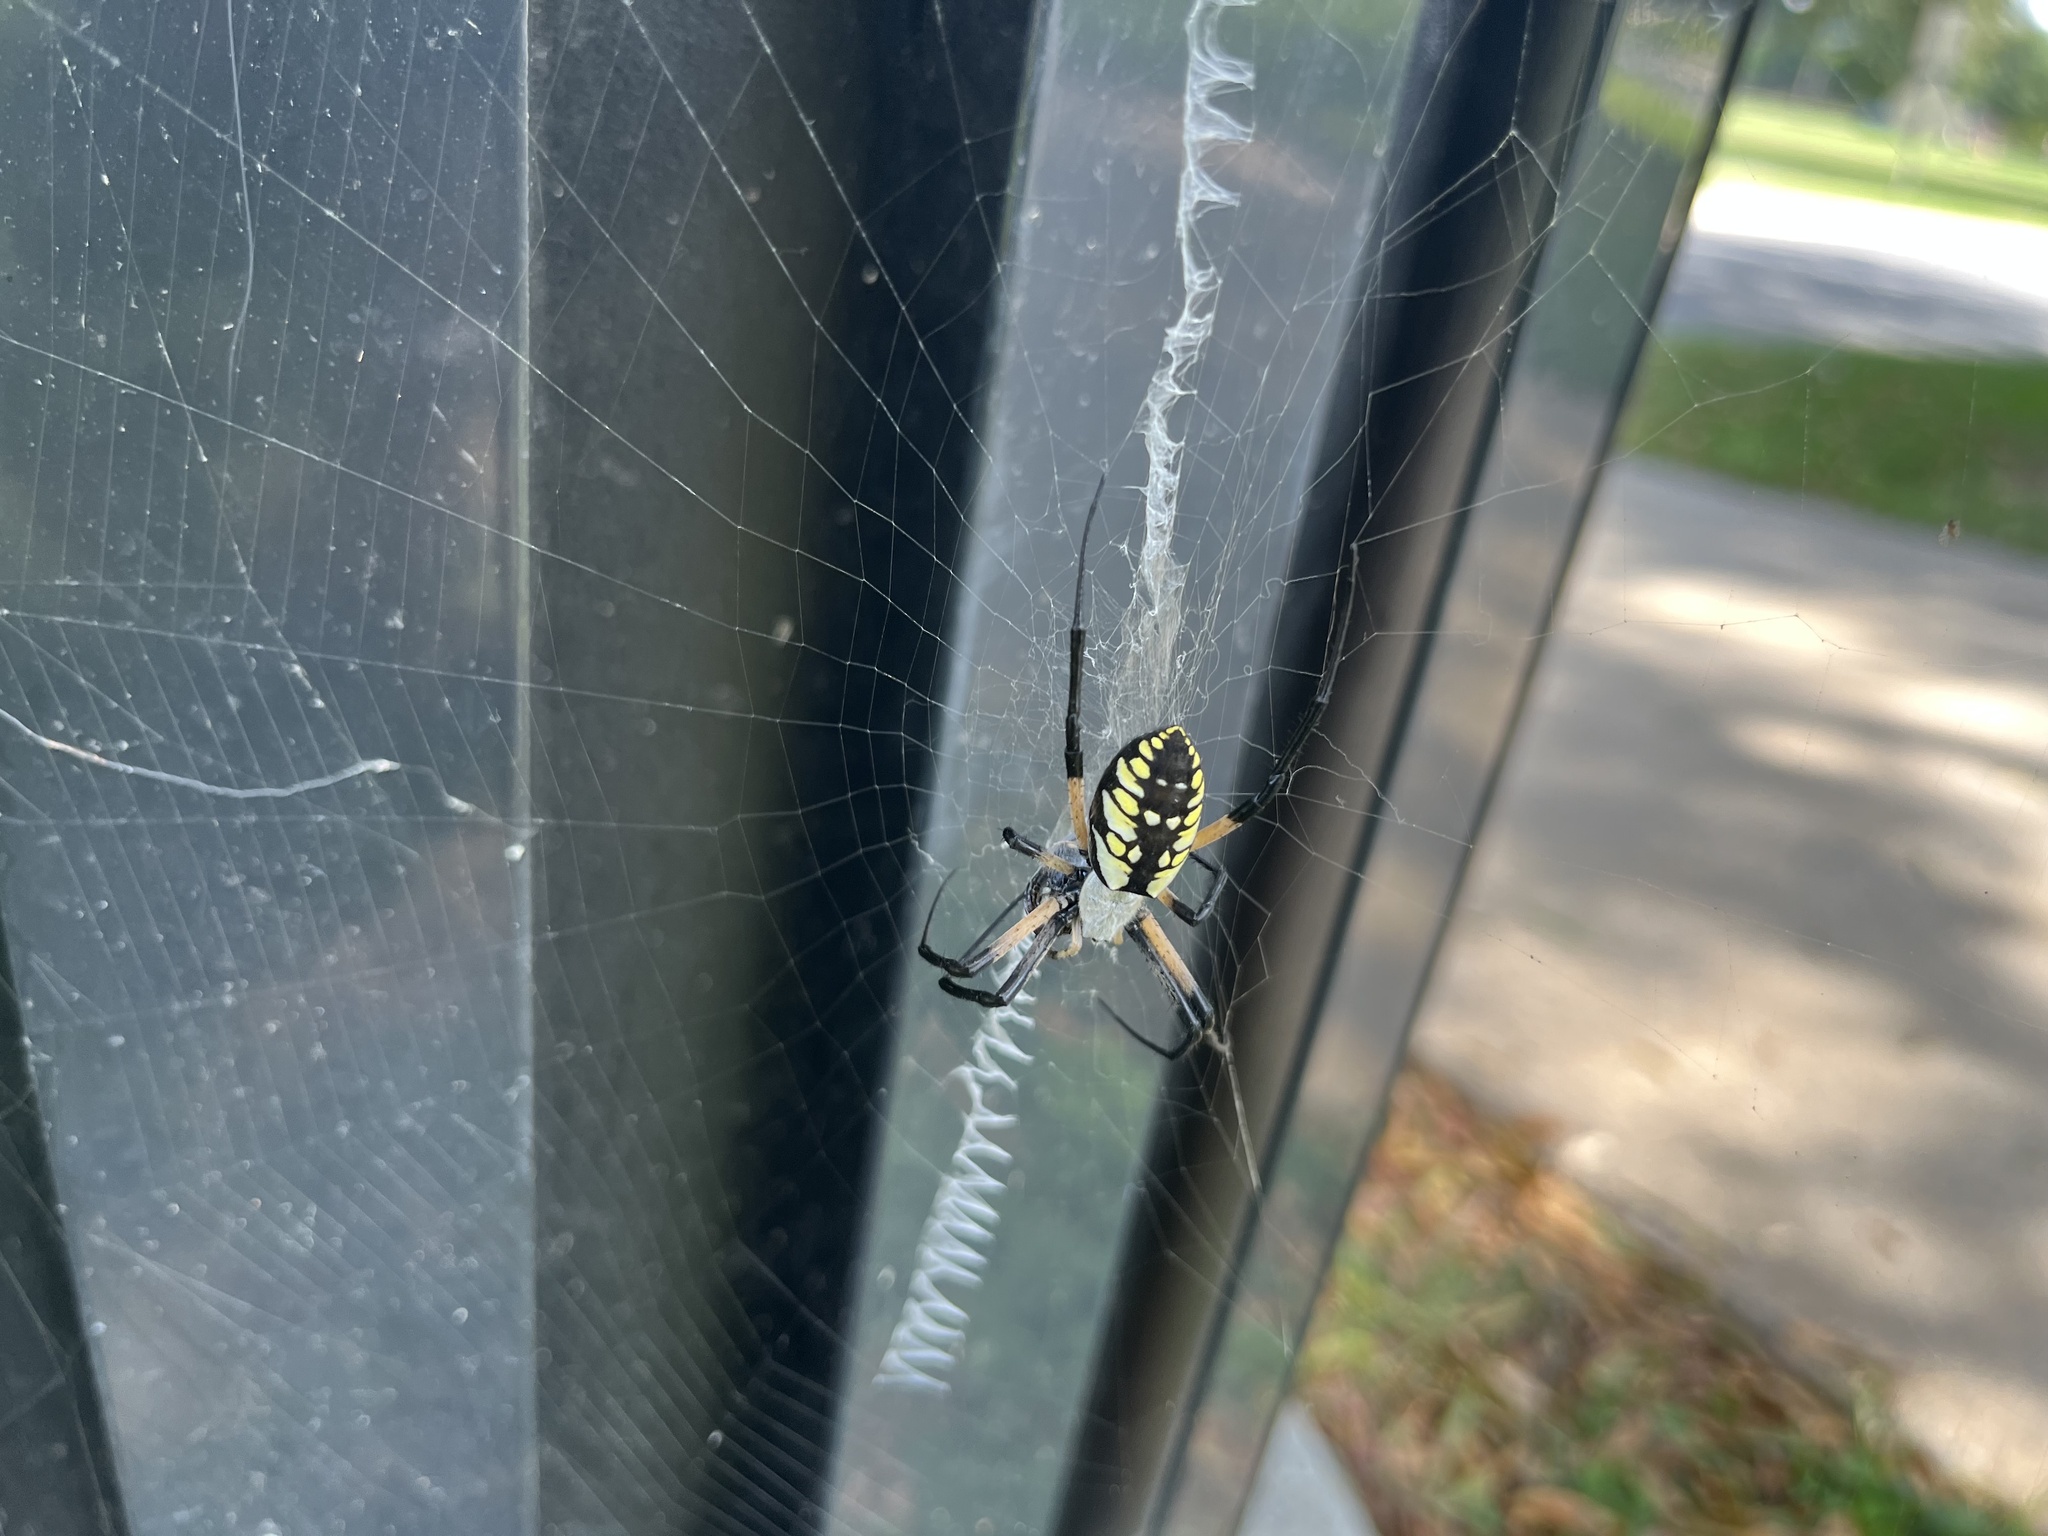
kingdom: Animalia
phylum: Arthropoda
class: Arachnida
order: Araneae
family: Araneidae
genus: Argiope
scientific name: Argiope aurantia
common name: Orb weavers
